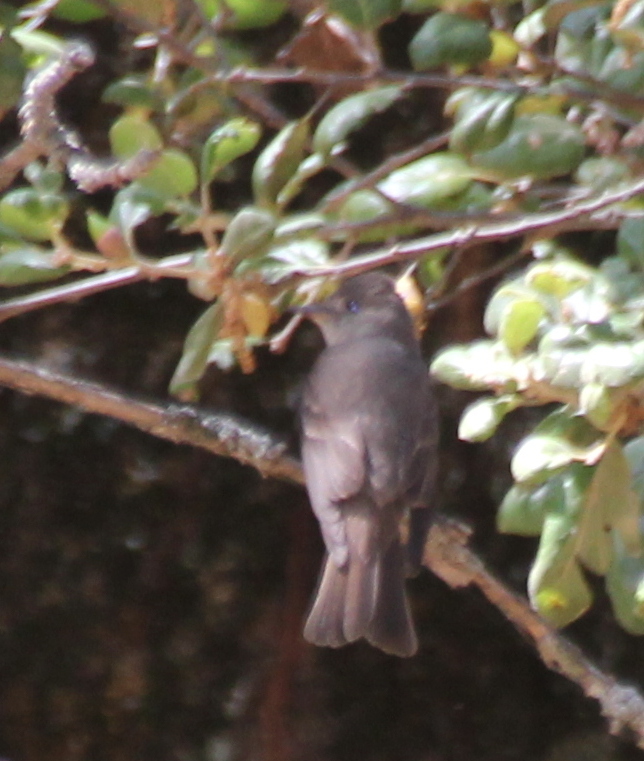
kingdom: Animalia
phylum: Chordata
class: Aves
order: Passeriformes
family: Tyrannidae
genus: Contopus
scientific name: Contopus sordidulus
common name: Western wood-pewee
